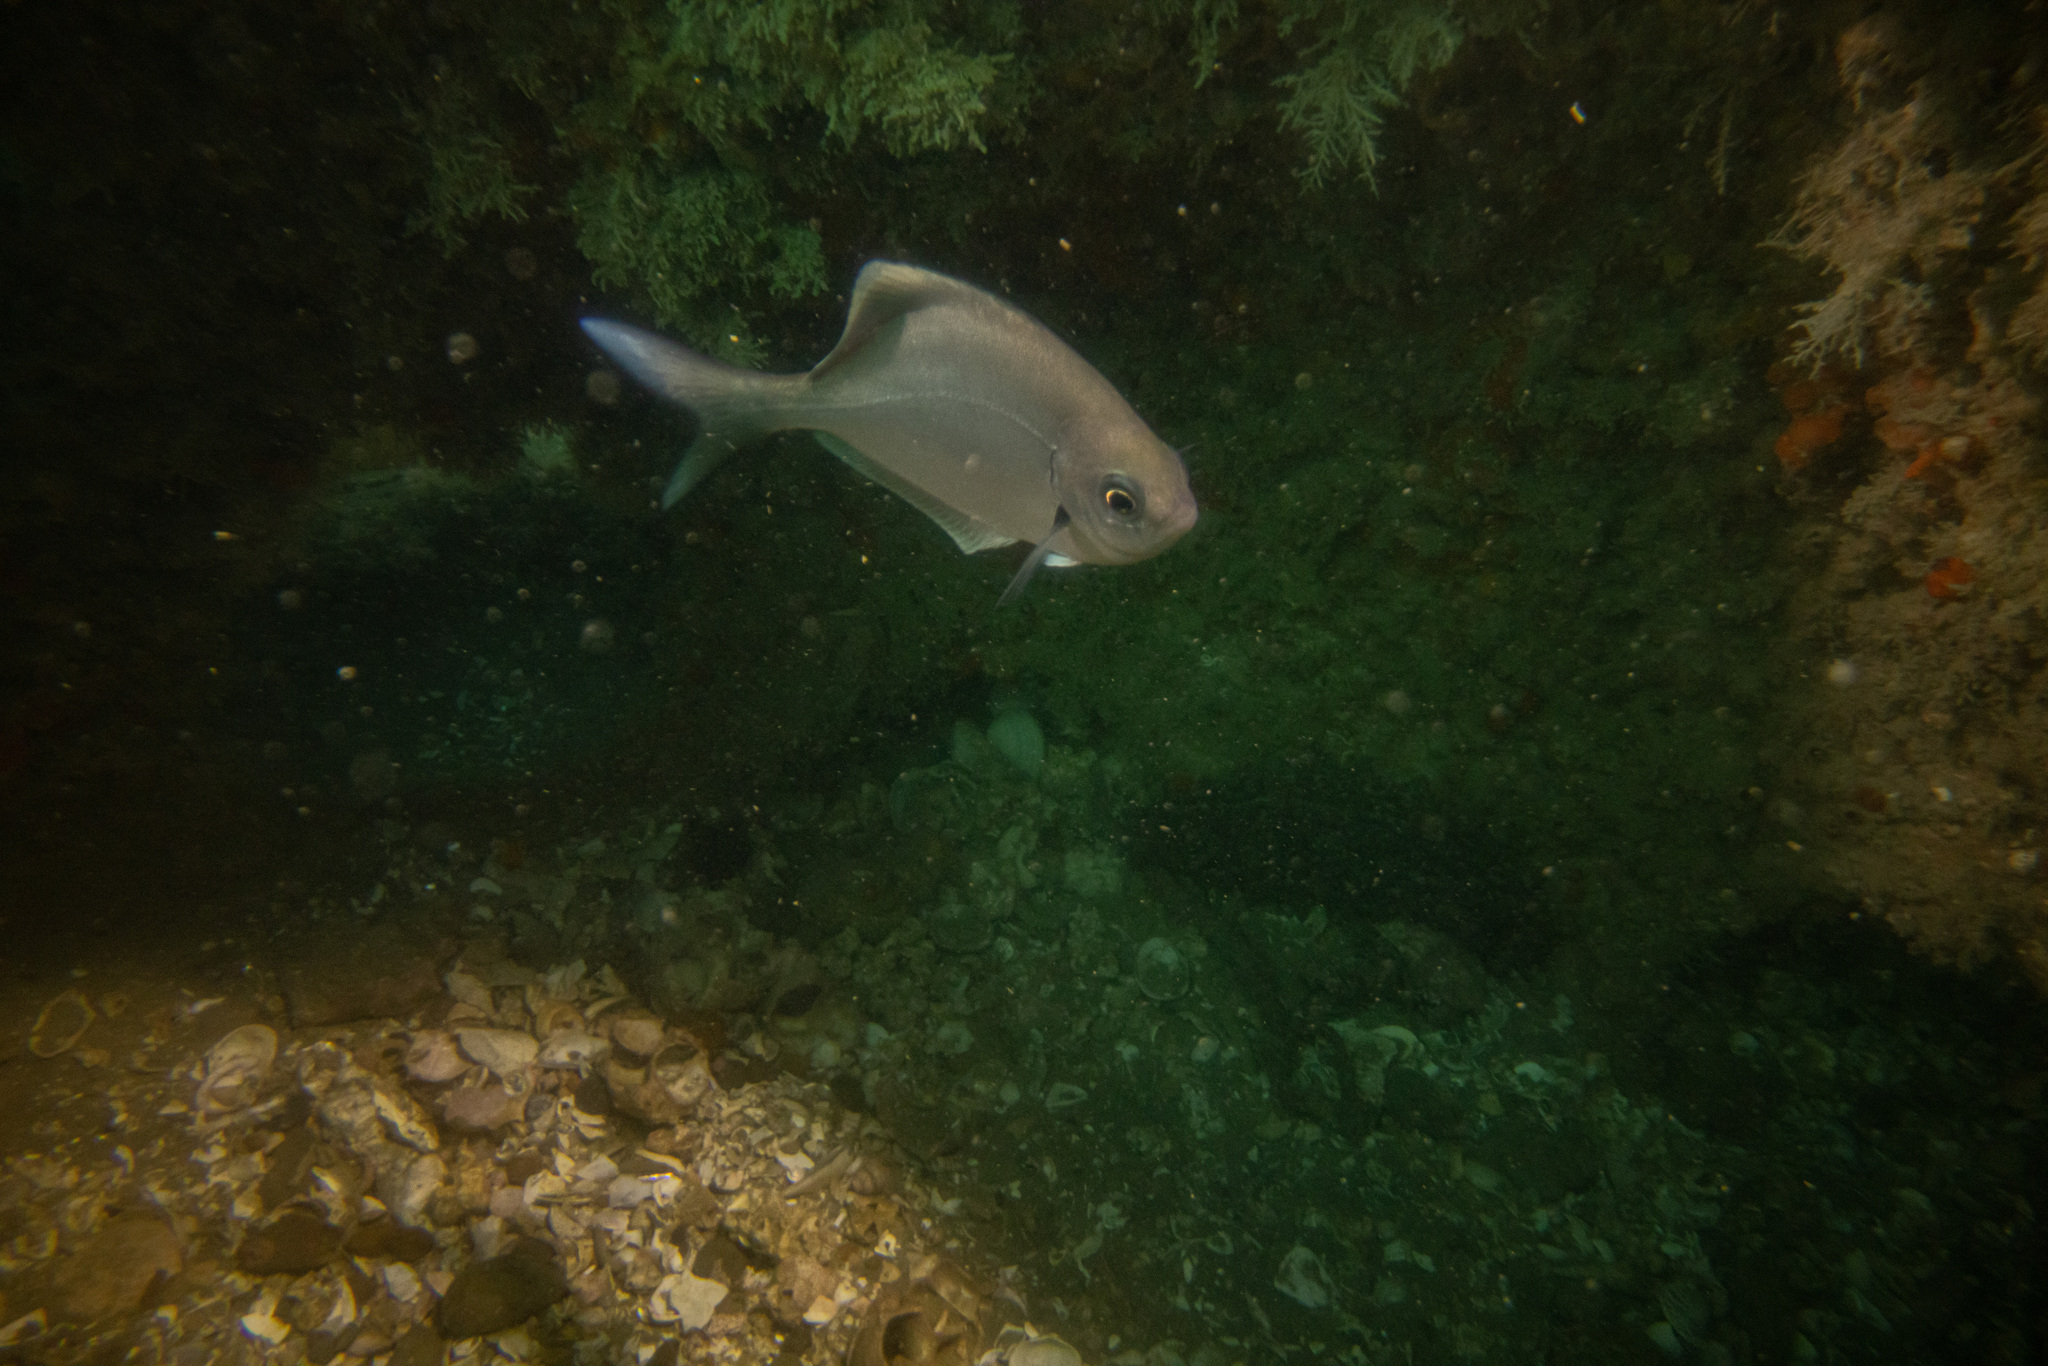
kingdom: Animalia
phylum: Chordata
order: Perciformes
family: Kyphosidae
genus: Scorpis
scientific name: Scorpis lineolata
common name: Sweep
